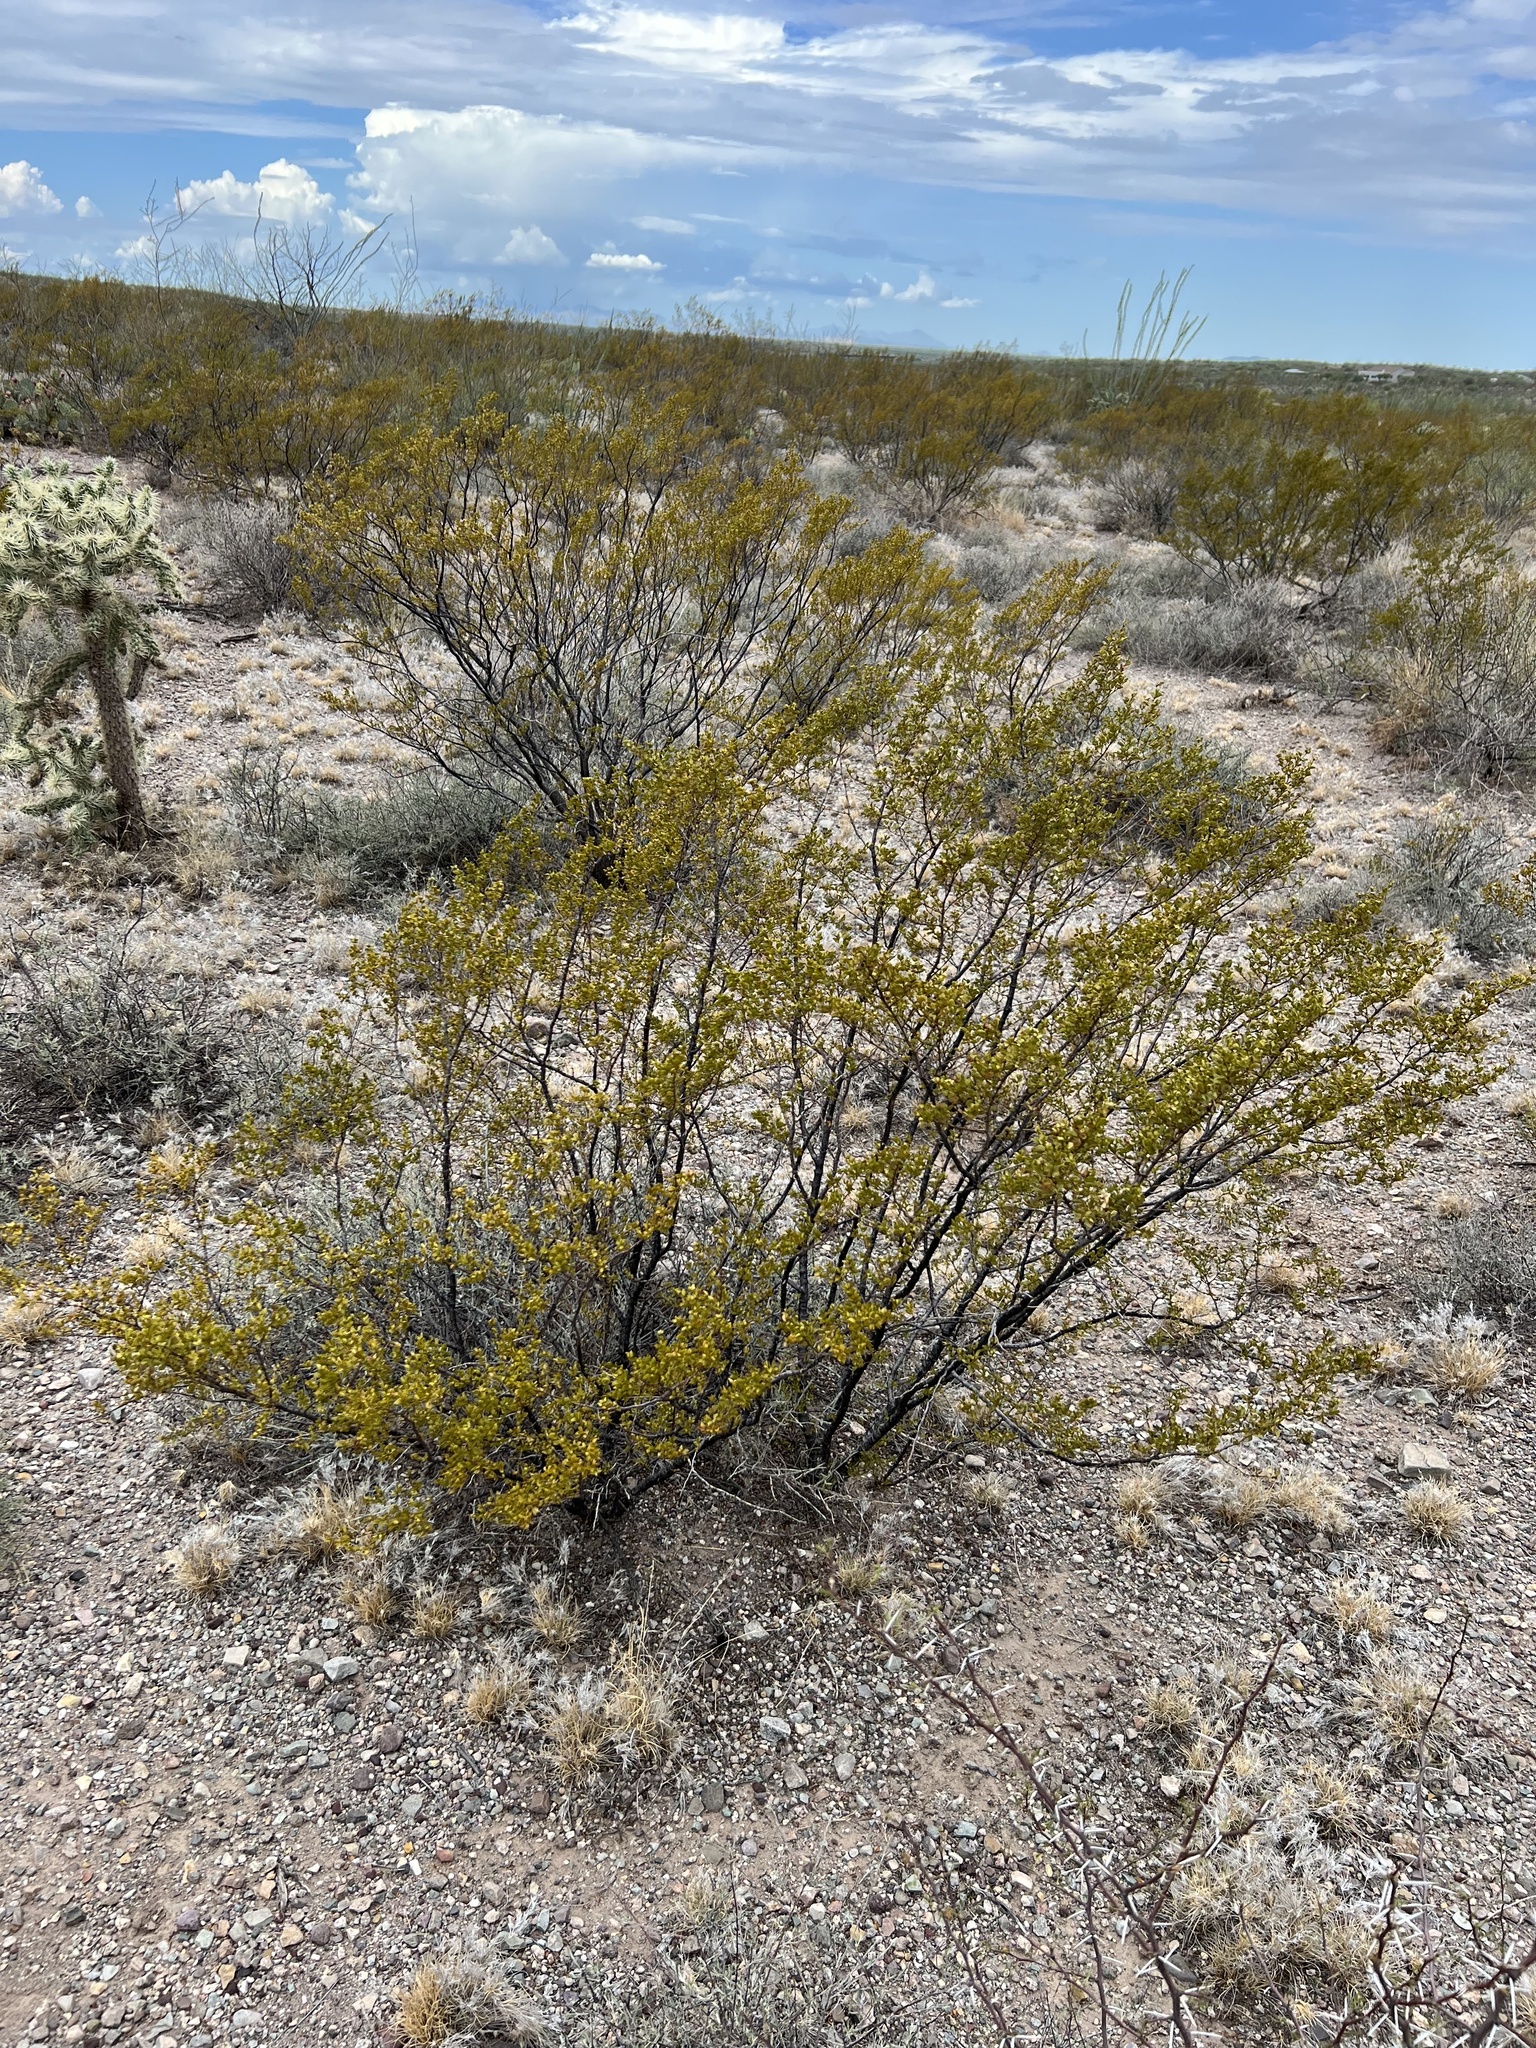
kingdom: Plantae
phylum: Tracheophyta
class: Magnoliopsida
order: Zygophyllales
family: Zygophyllaceae
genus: Larrea
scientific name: Larrea tridentata
